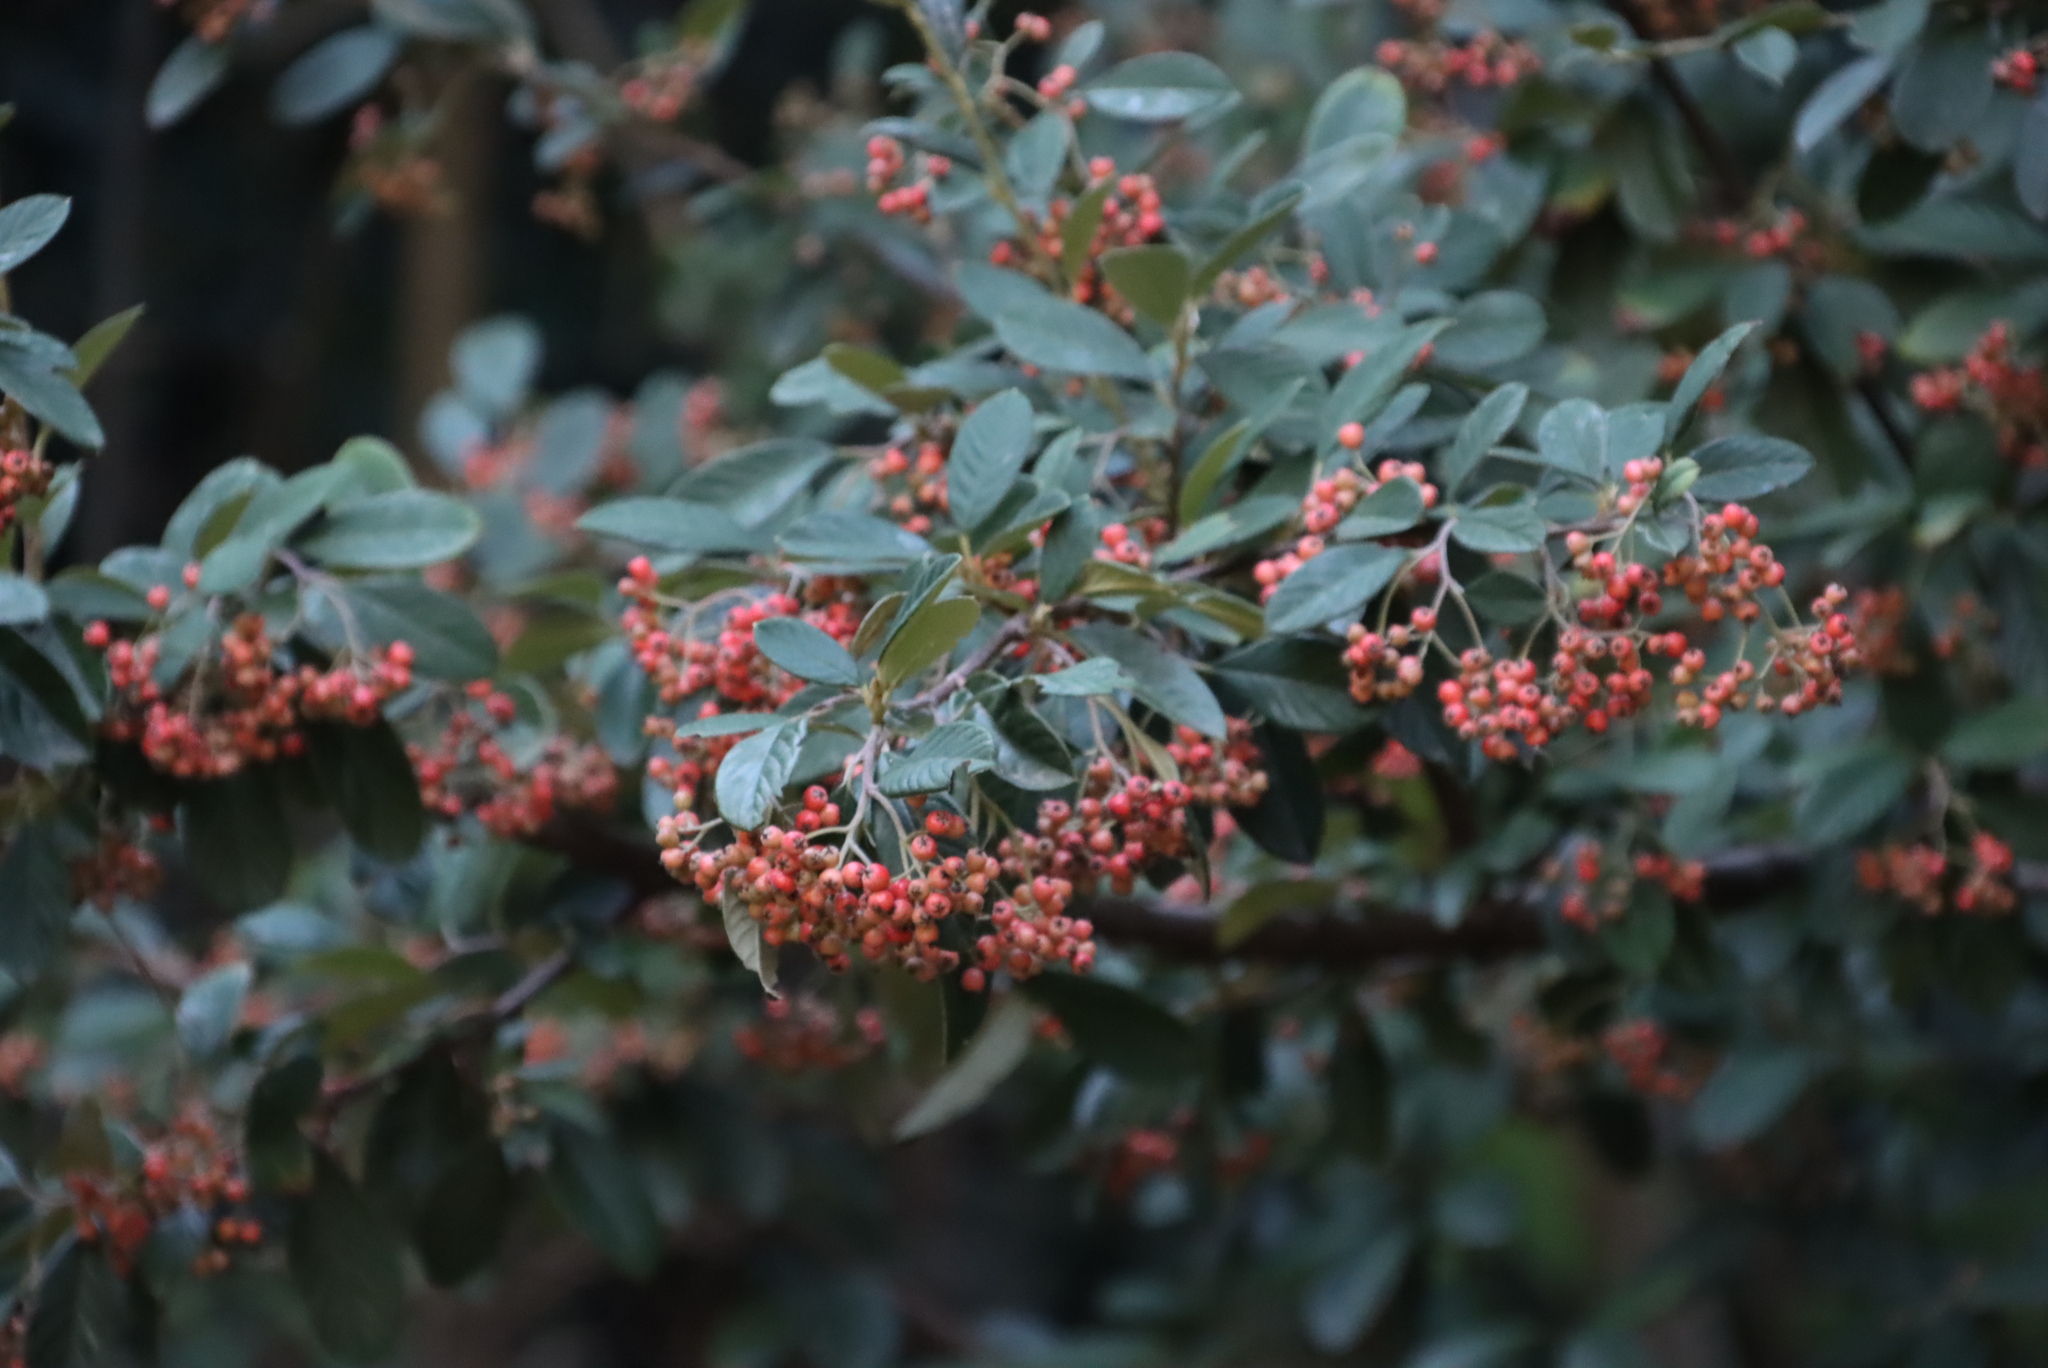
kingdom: Plantae
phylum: Tracheophyta
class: Magnoliopsida
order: Rosales
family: Rosaceae
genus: Cotoneaster
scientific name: Cotoneaster coriaceus
